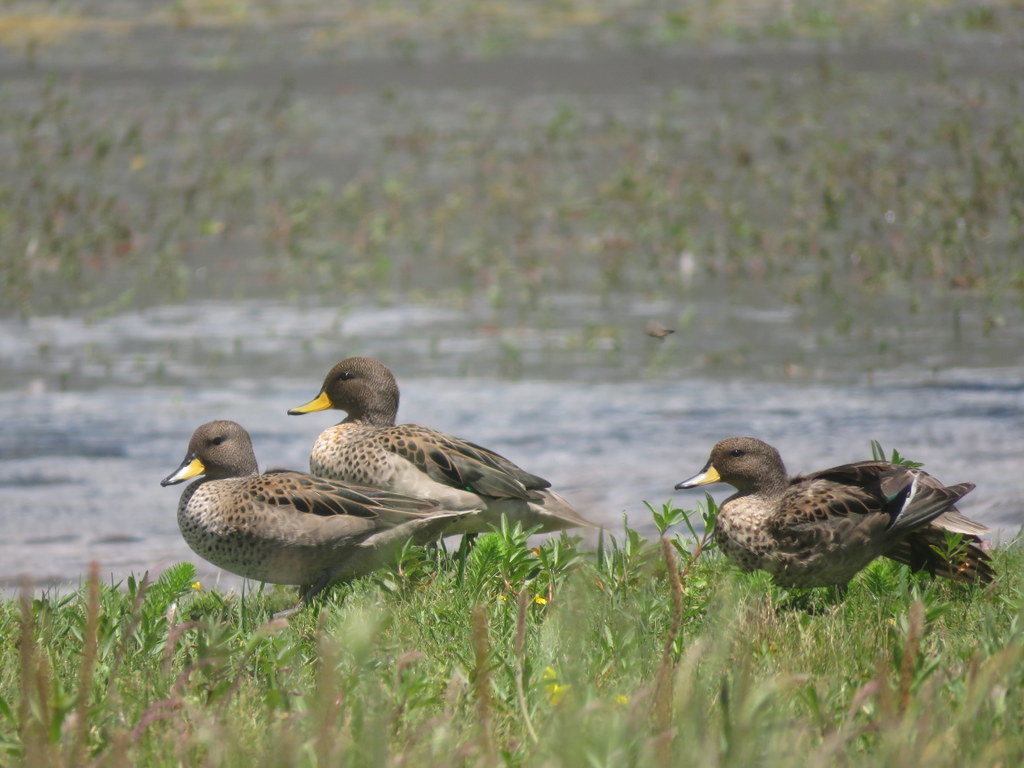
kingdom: Animalia
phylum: Chordata
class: Aves
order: Anseriformes
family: Anatidae
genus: Anas
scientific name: Anas flavirostris
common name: Yellow-billed teal
